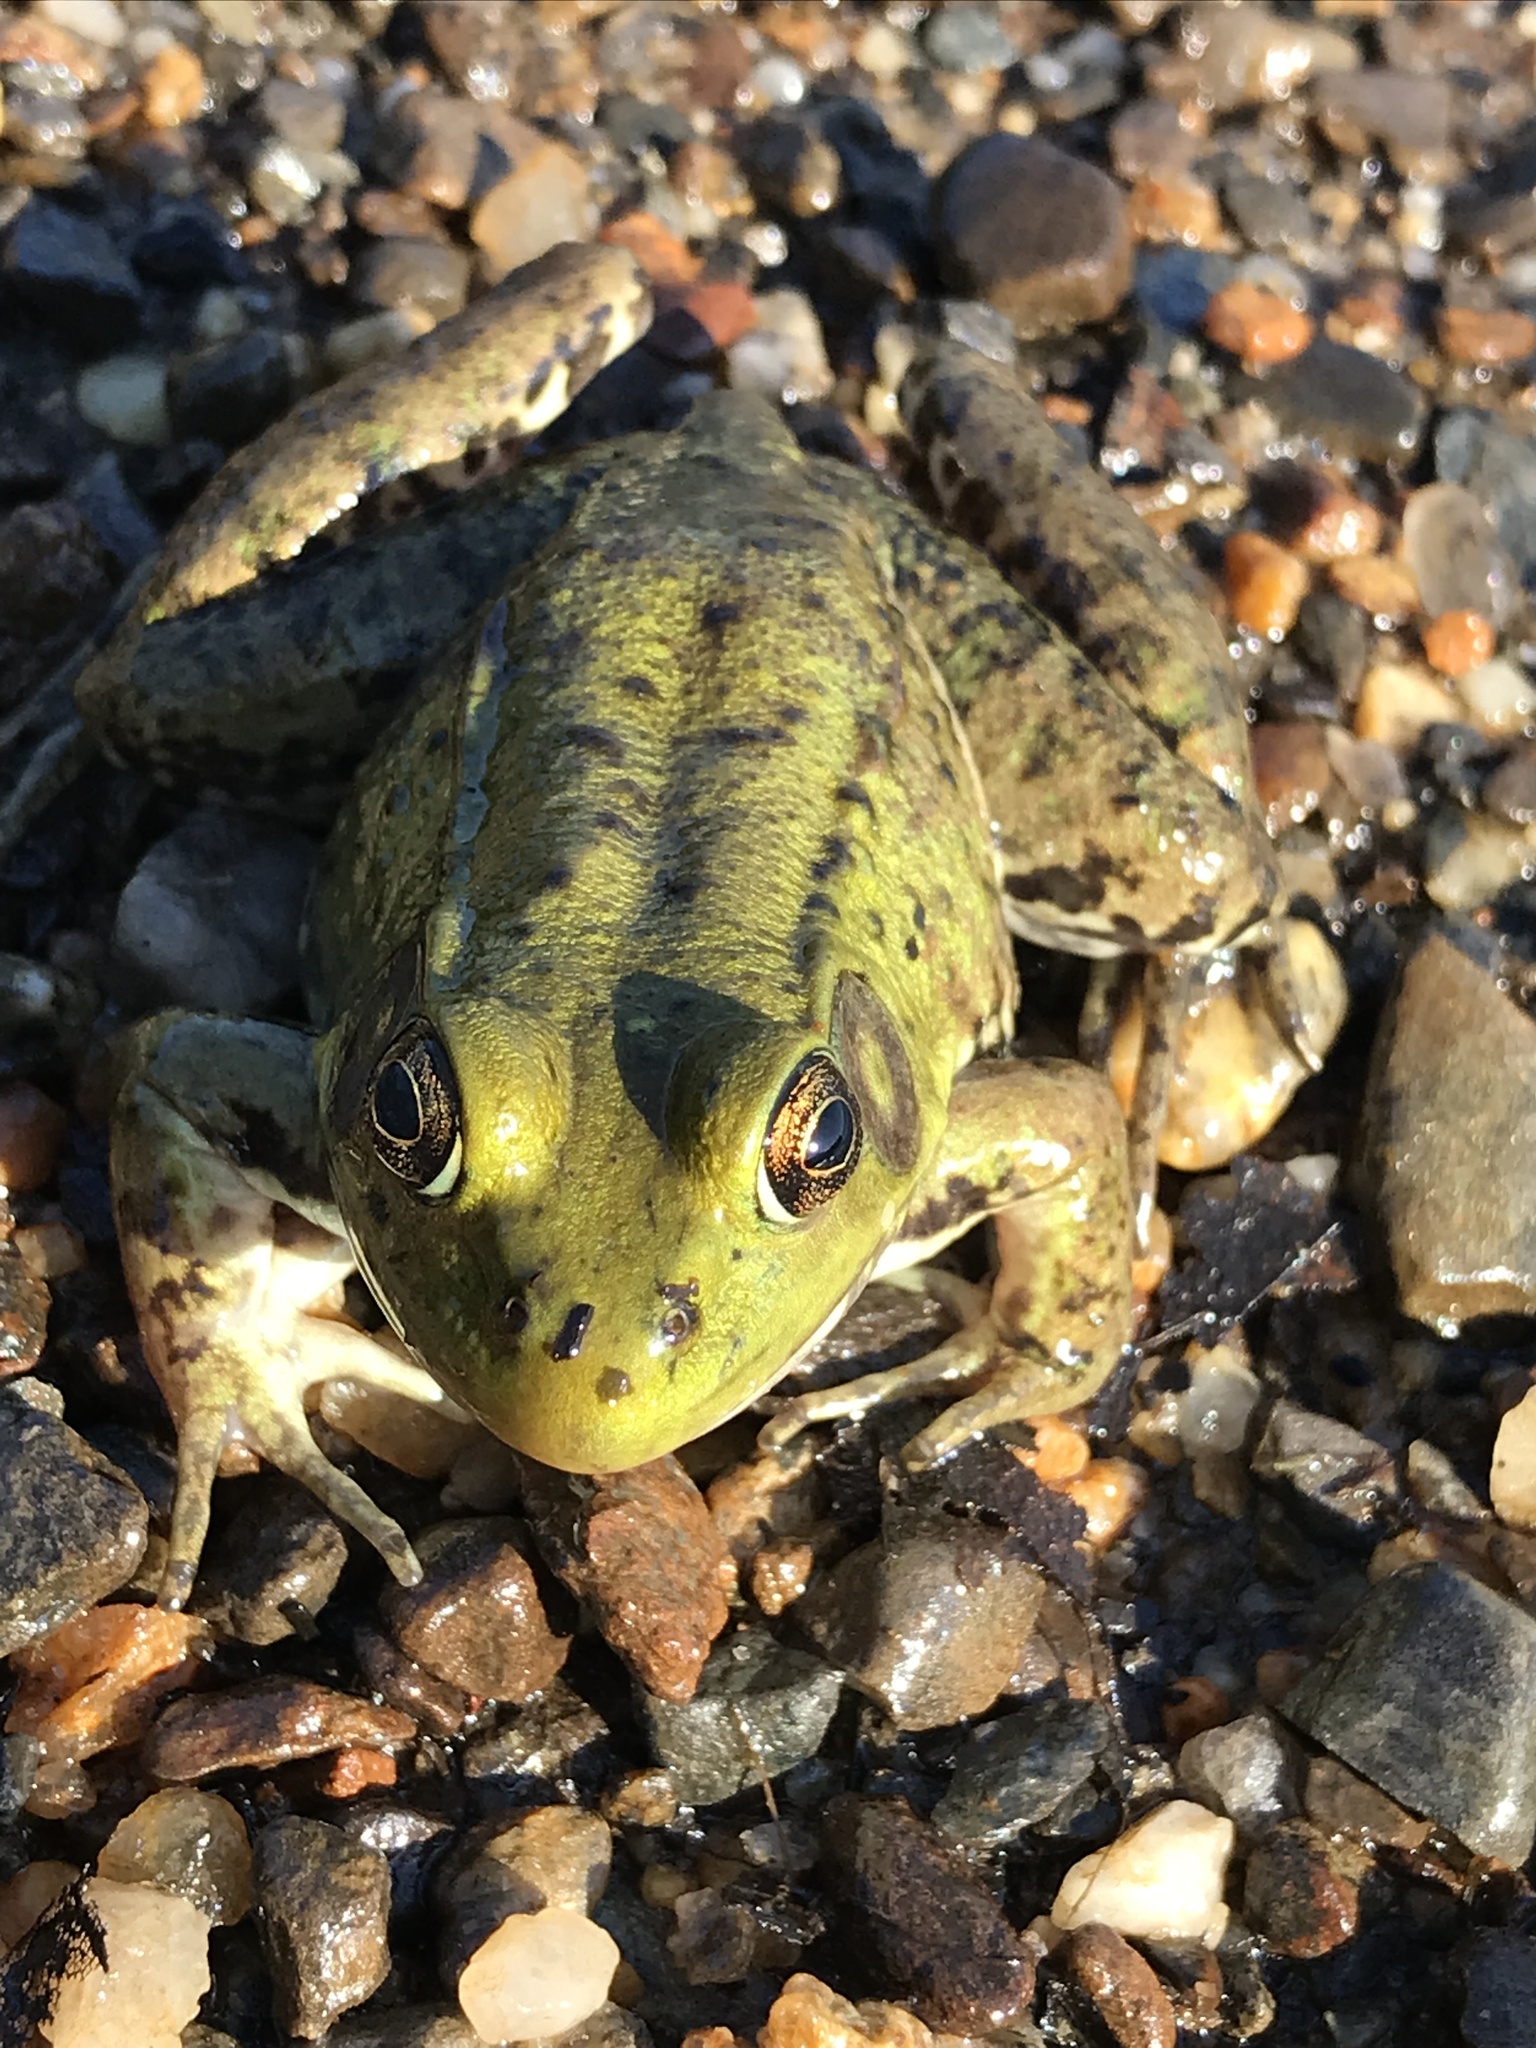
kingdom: Animalia
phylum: Chordata
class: Amphibia
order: Anura
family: Ranidae
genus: Lithobates
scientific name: Lithobates clamitans
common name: Green frog
